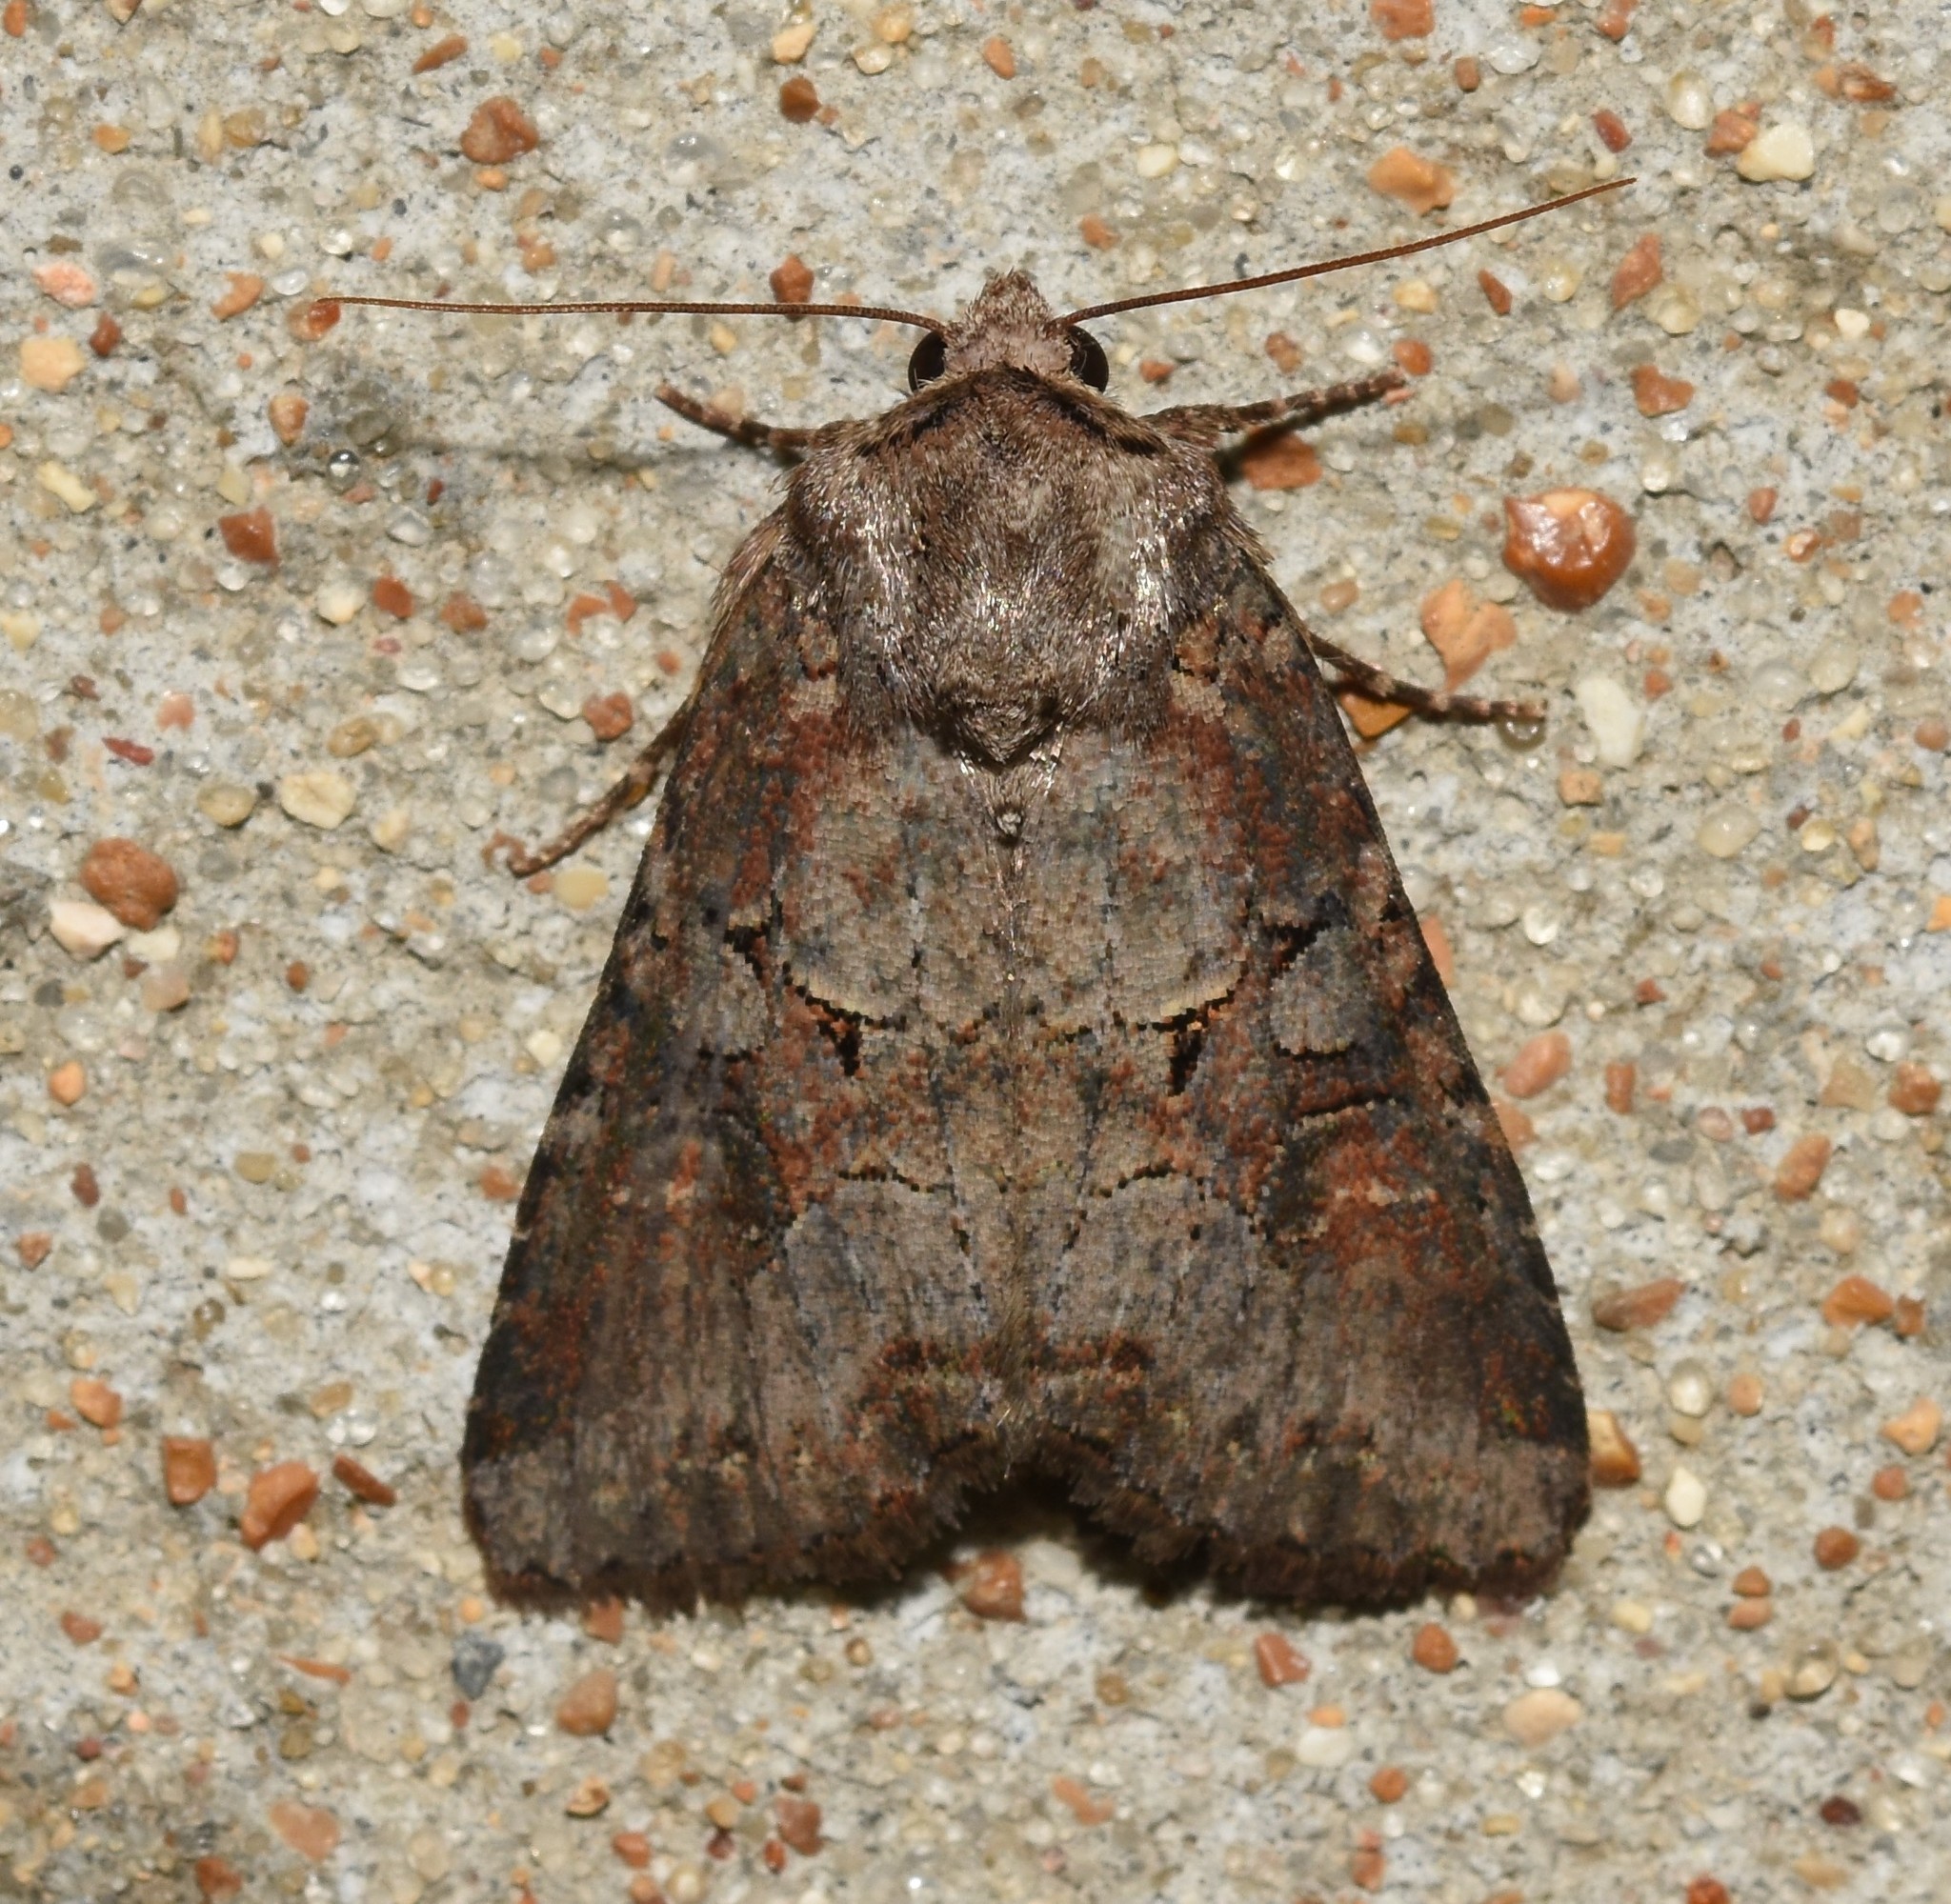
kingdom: Animalia
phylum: Arthropoda
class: Insecta
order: Lepidoptera
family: Noctuidae
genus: Trichordestra
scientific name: Trichordestra legitima
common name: Striped garden caterpillar
